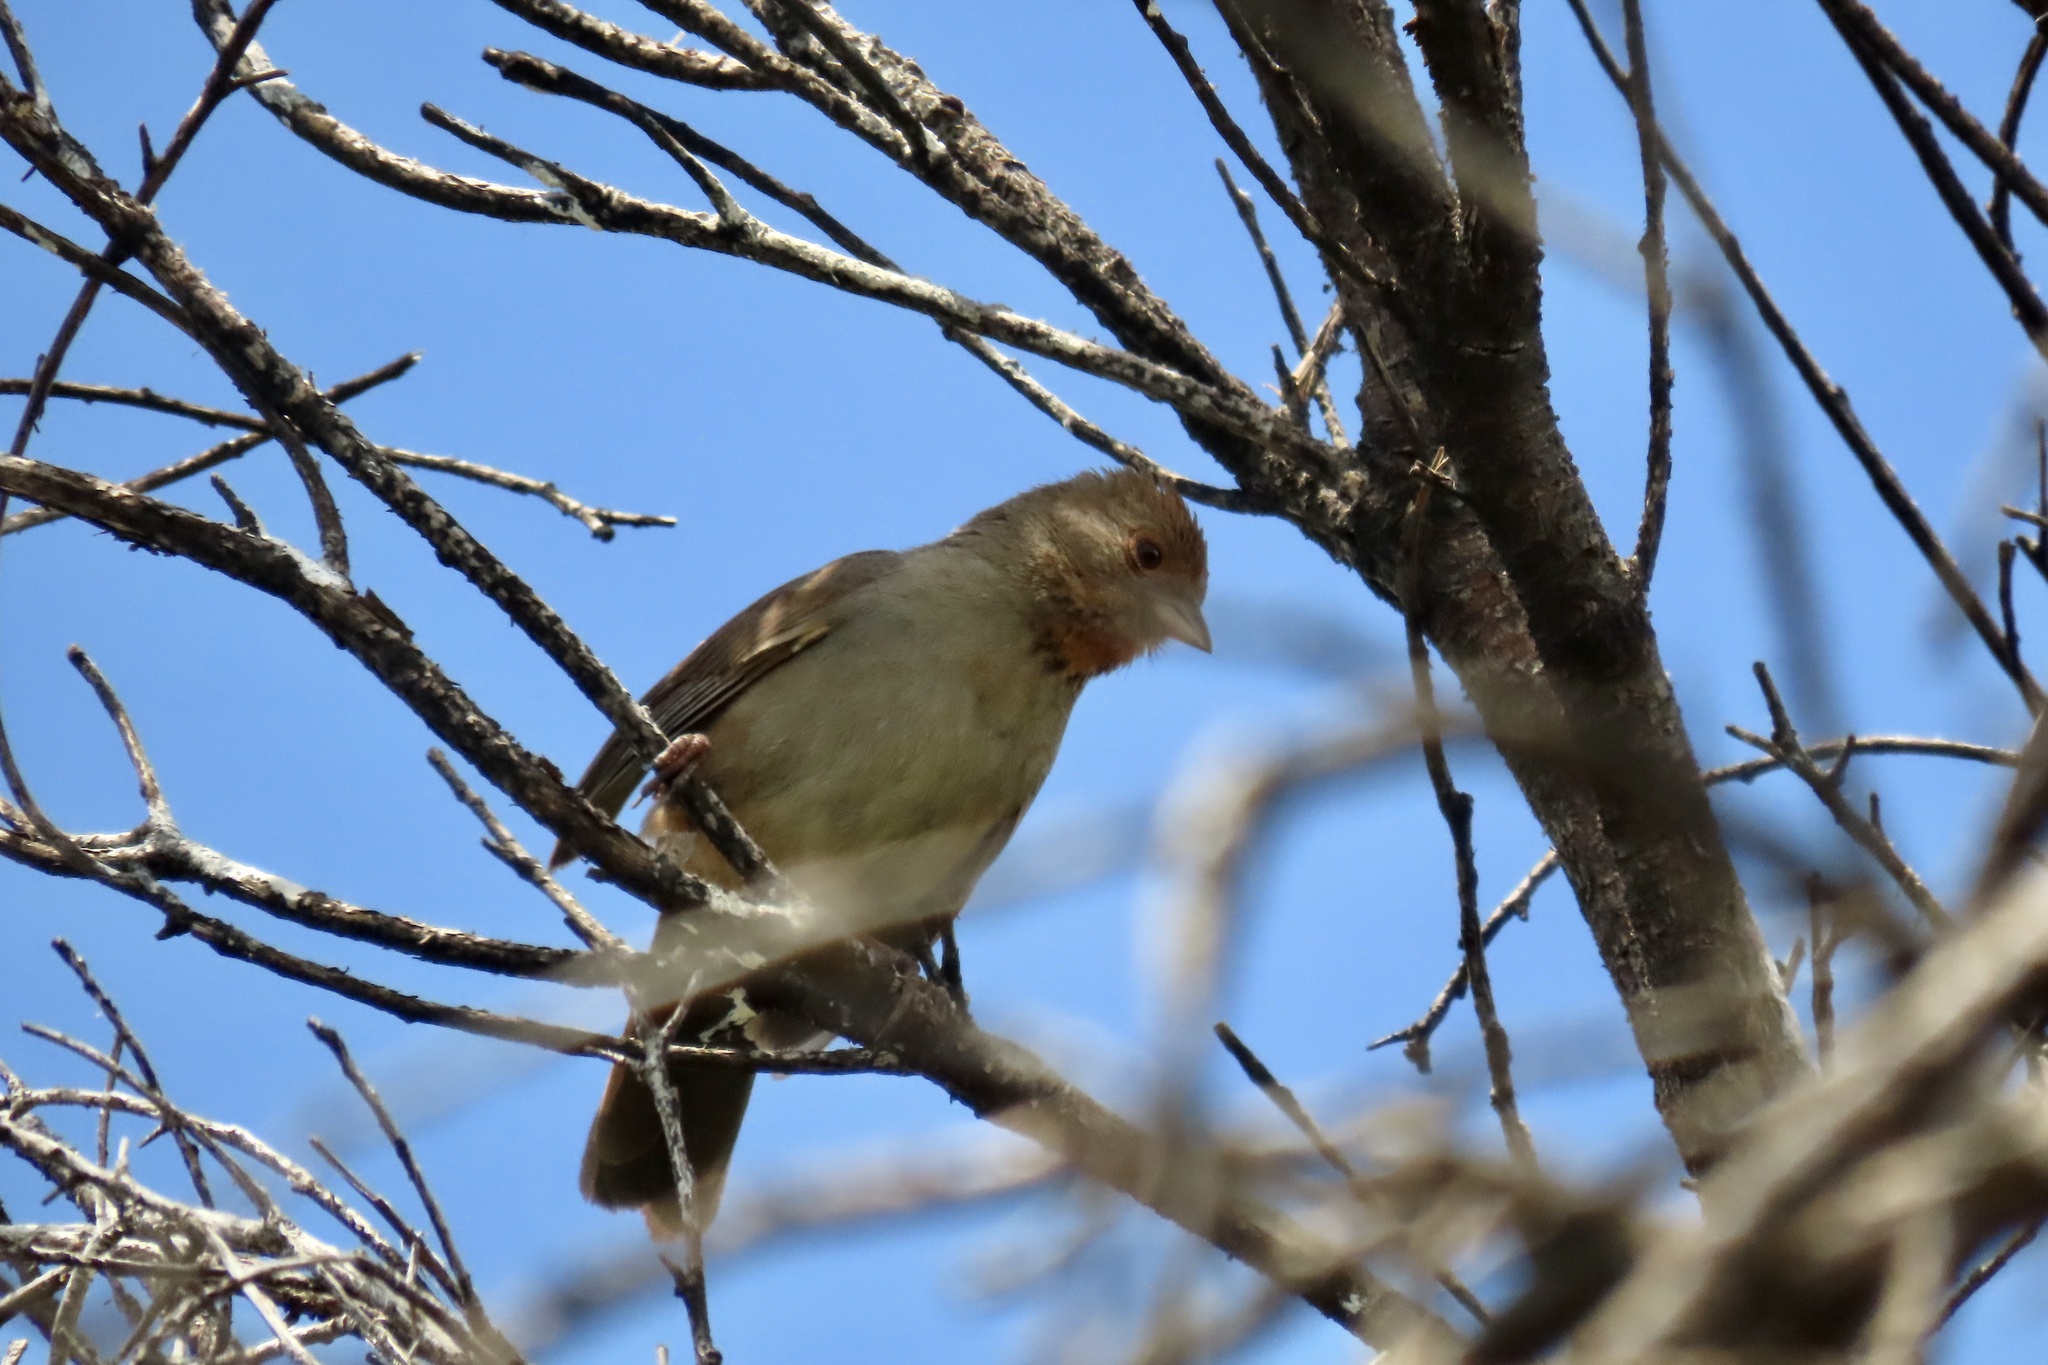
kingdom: Animalia
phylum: Chordata
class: Aves
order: Passeriformes
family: Passerellidae
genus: Melozone
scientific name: Melozone crissalis
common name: California towhee
